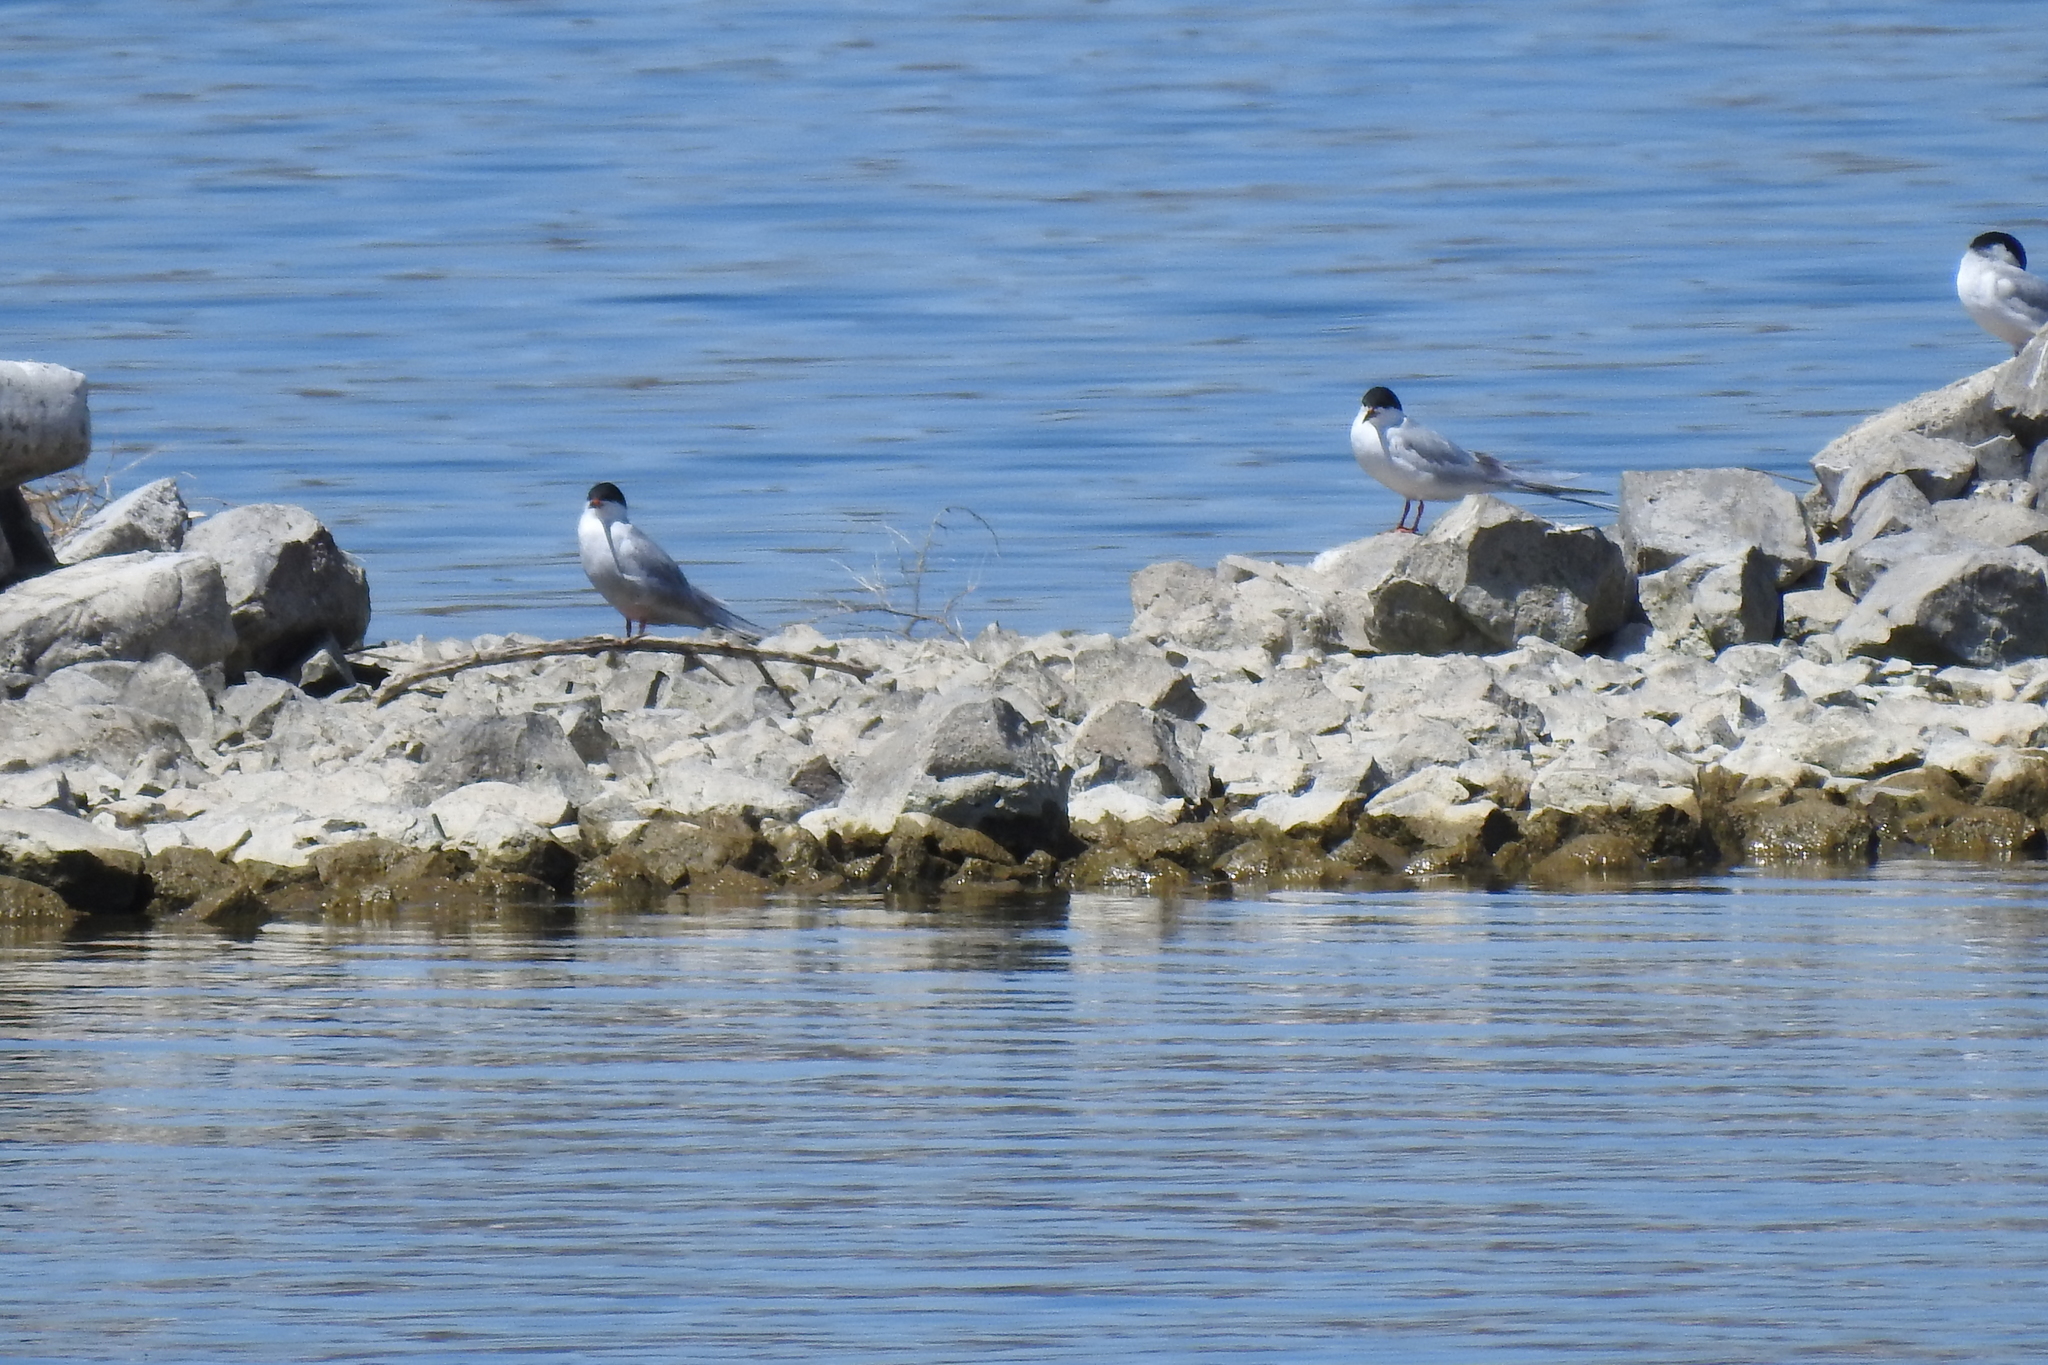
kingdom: Animalia
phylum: Chordata
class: Aves
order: Charadriiformes
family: Laridae
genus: Sterna
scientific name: Sterna forsteri
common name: Forster's tern
